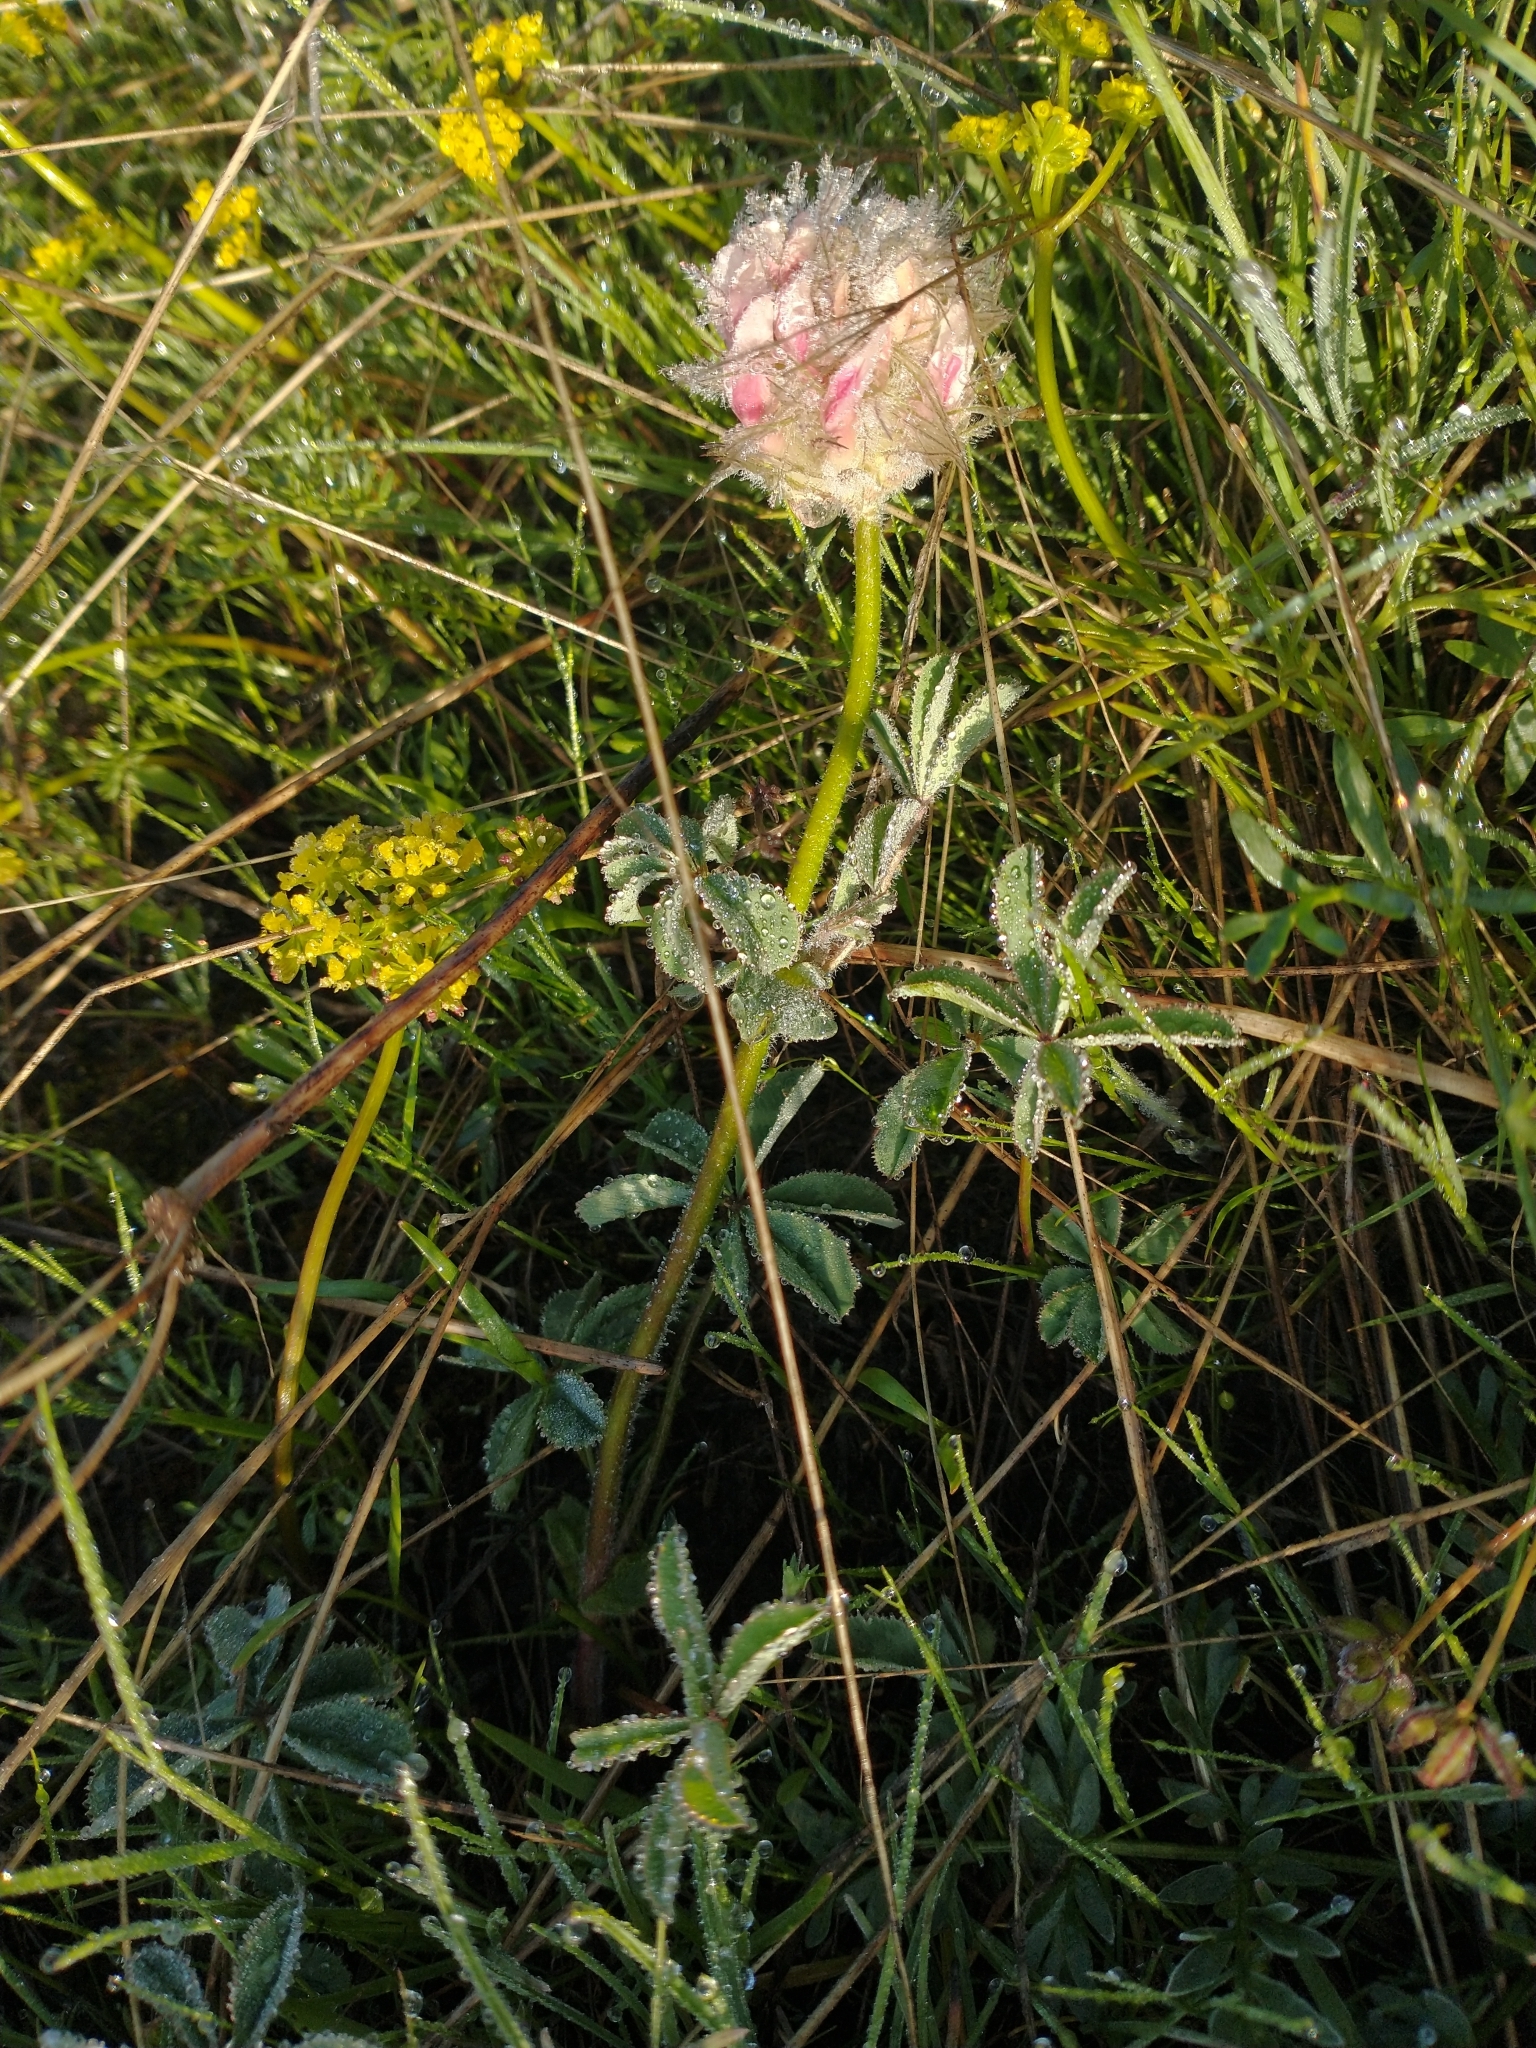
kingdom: Plantae
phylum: Tracheophyta
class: Magnoliopsida
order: Fabales
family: Fabaceae
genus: Trifolium
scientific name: Trifolium macrocephalum
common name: Large-head clover
